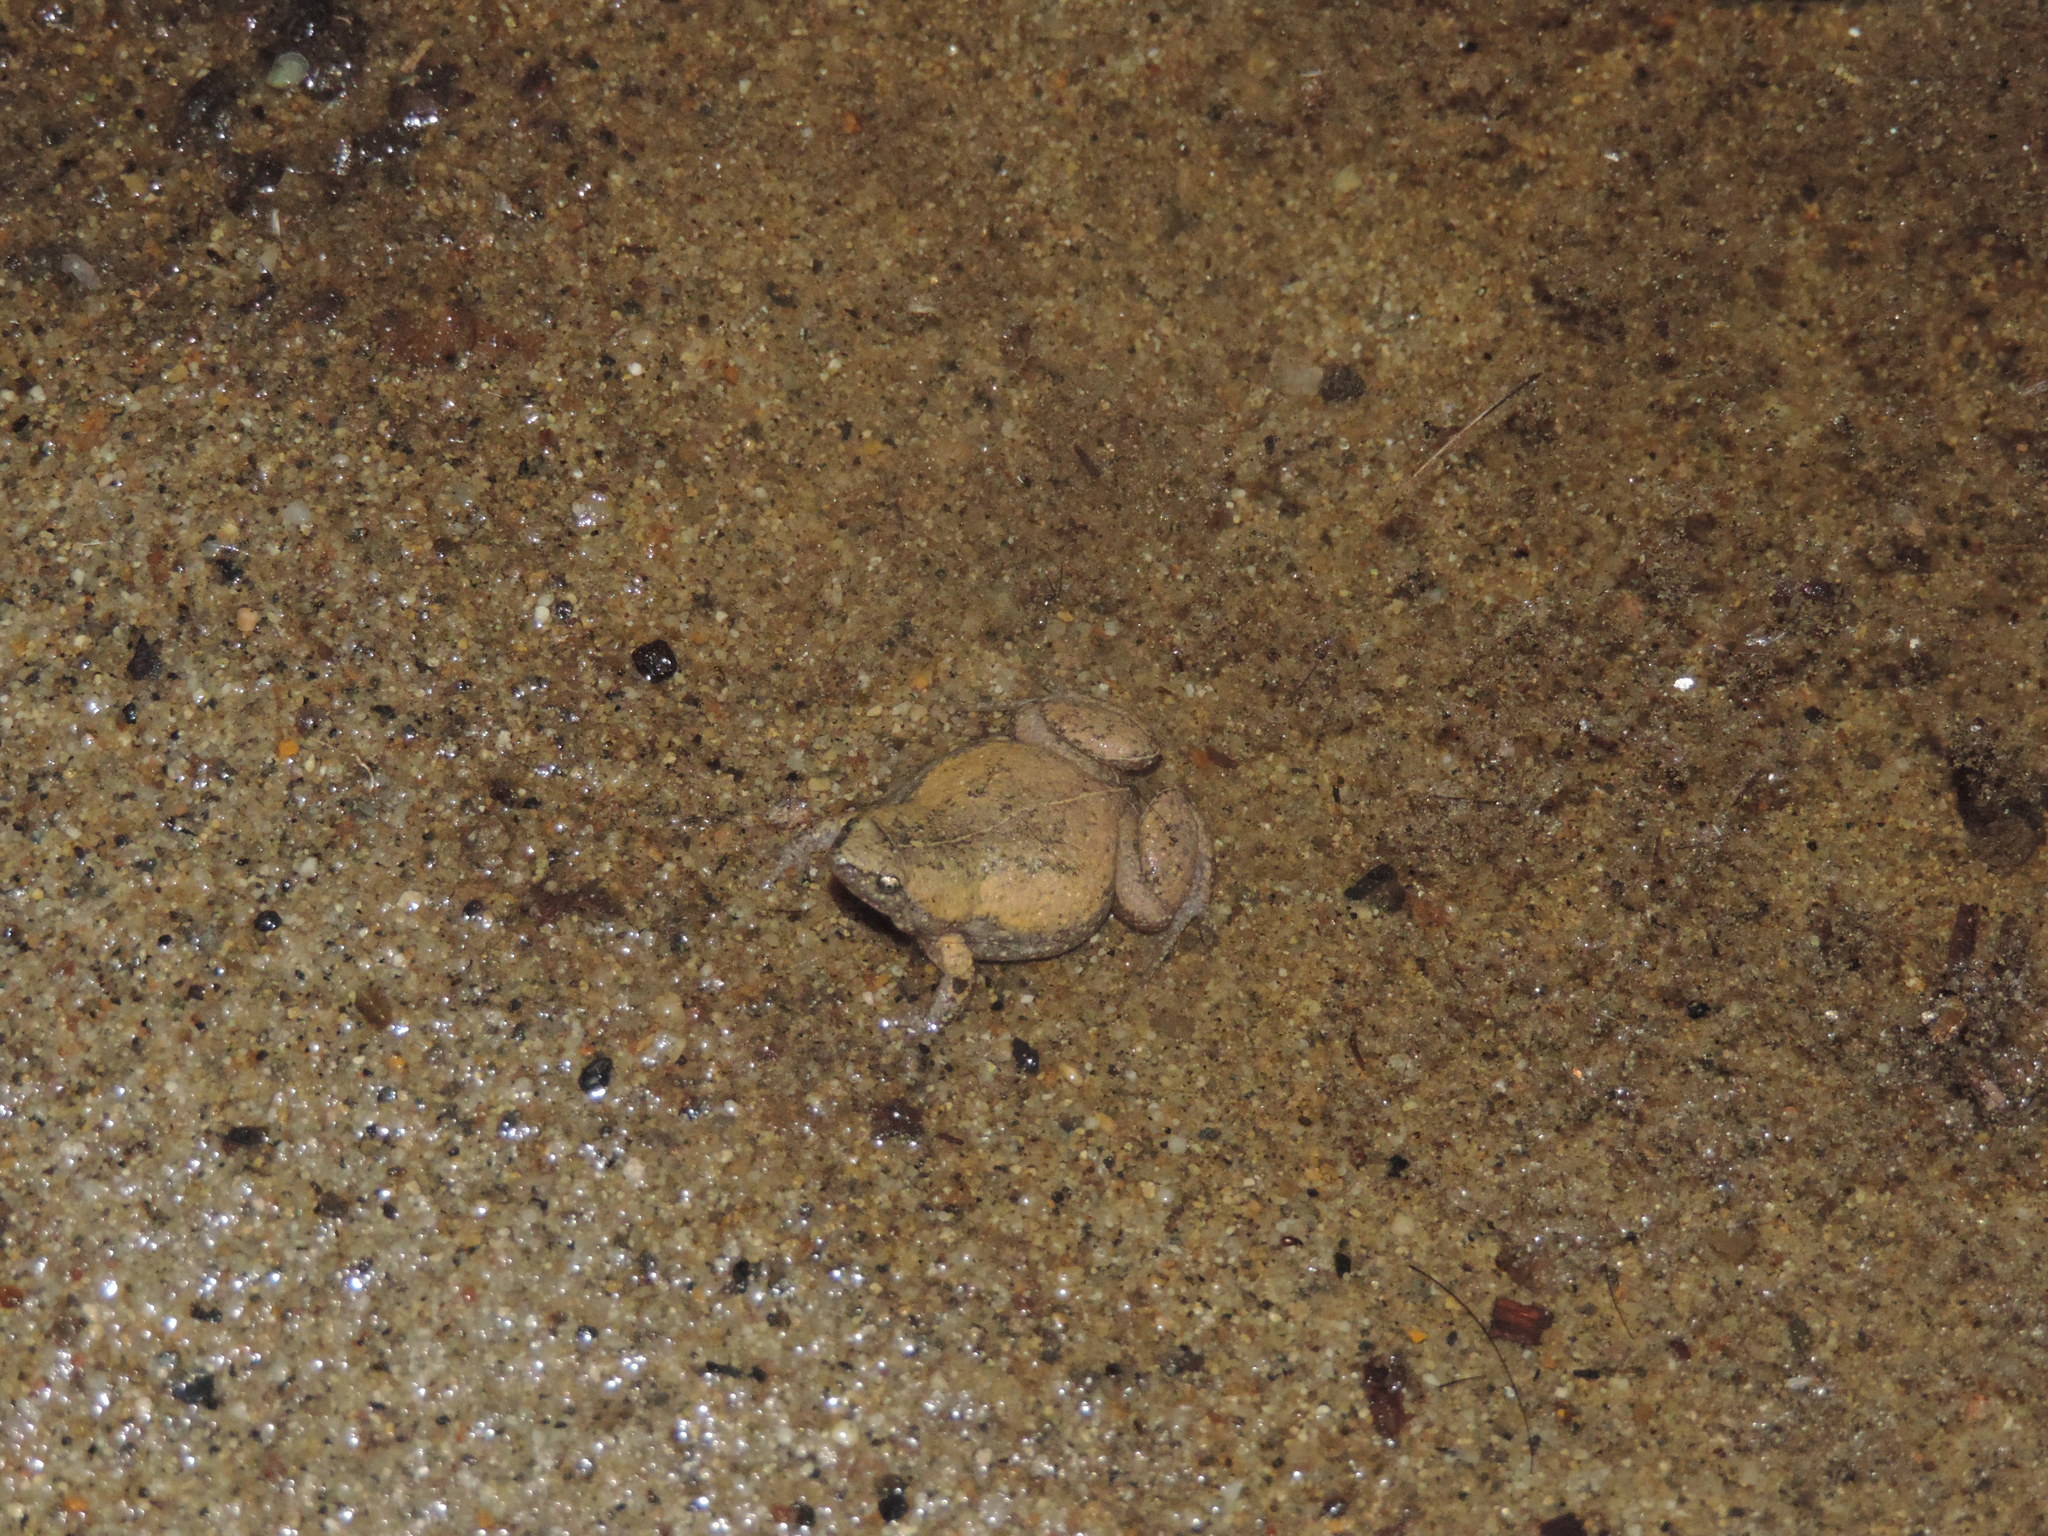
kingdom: Animalia
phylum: Chordata
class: Amphibia
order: Anura
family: Microhylidae
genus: Elachistocleis
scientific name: Elachistocleis panamensis
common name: Panama humming frog
